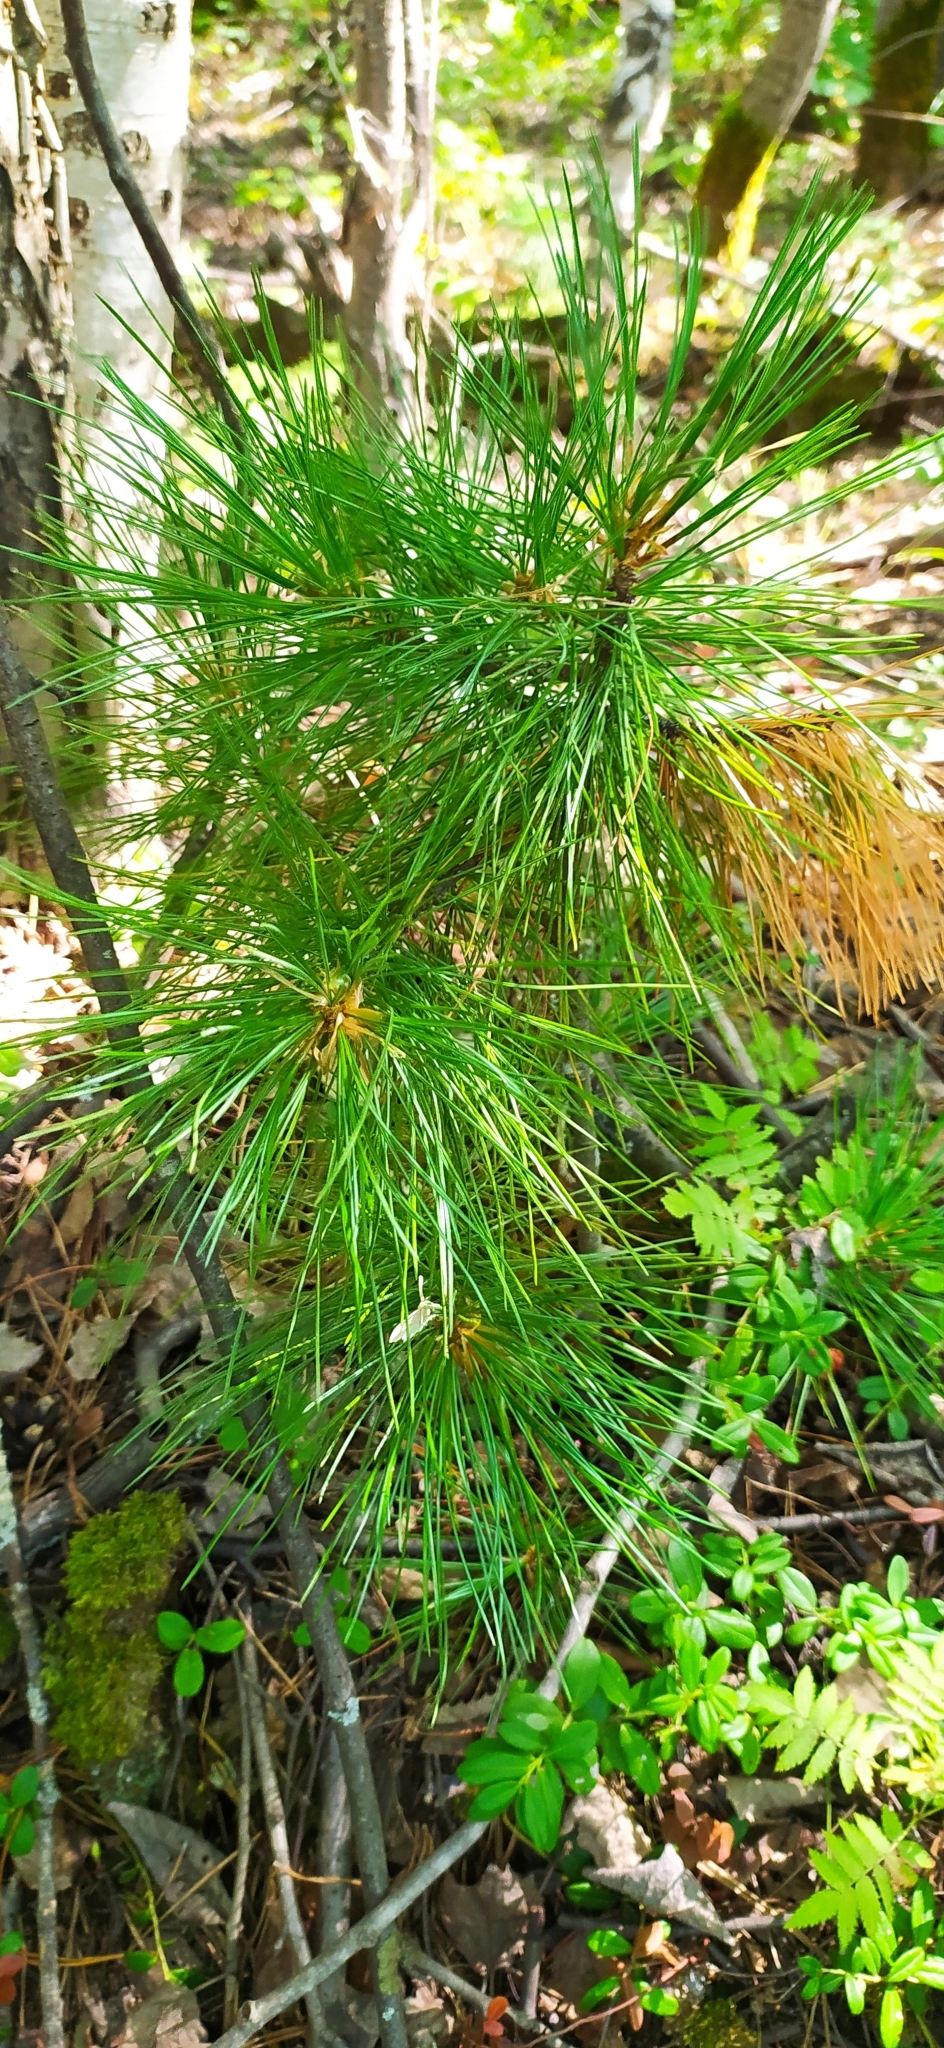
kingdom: Plantae
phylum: Tracheophyta
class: Pinopsida
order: Pinales
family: Pinaceae
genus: Pinus
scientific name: Pinus sibirica
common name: Siberian pine
